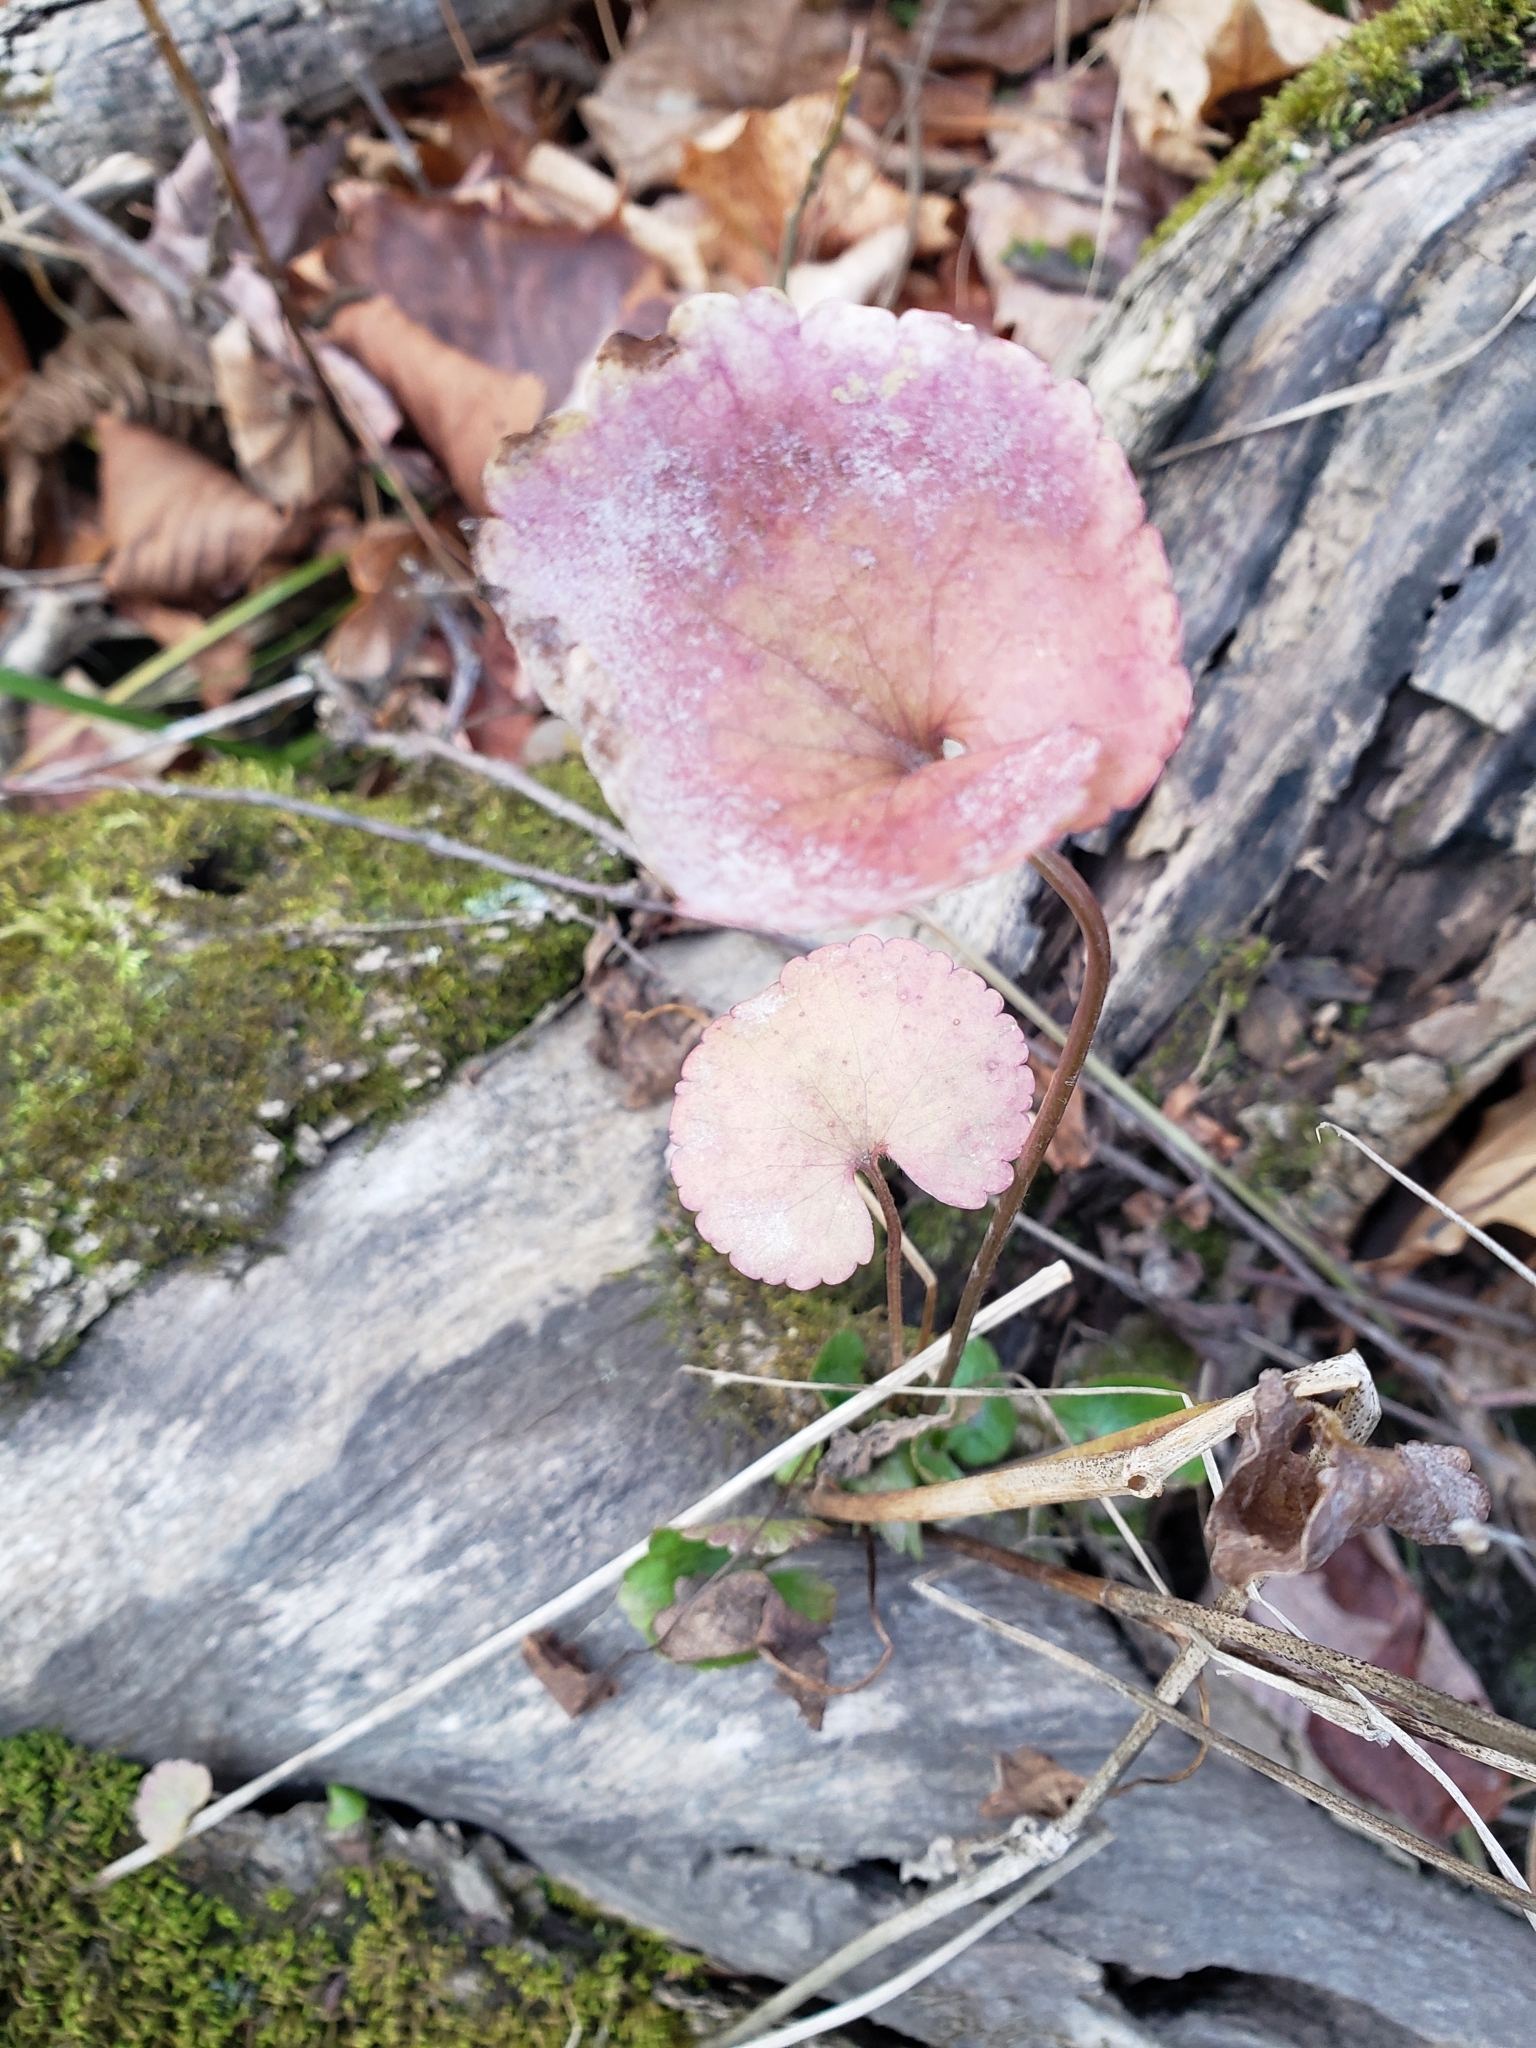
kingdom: Plantae
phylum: Tracheophyta
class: Magnoliopsida
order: Ranunculales
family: Ranunculaceae
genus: Ranunculus
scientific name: Ranunculus abortivus
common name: Early wood buttercup
